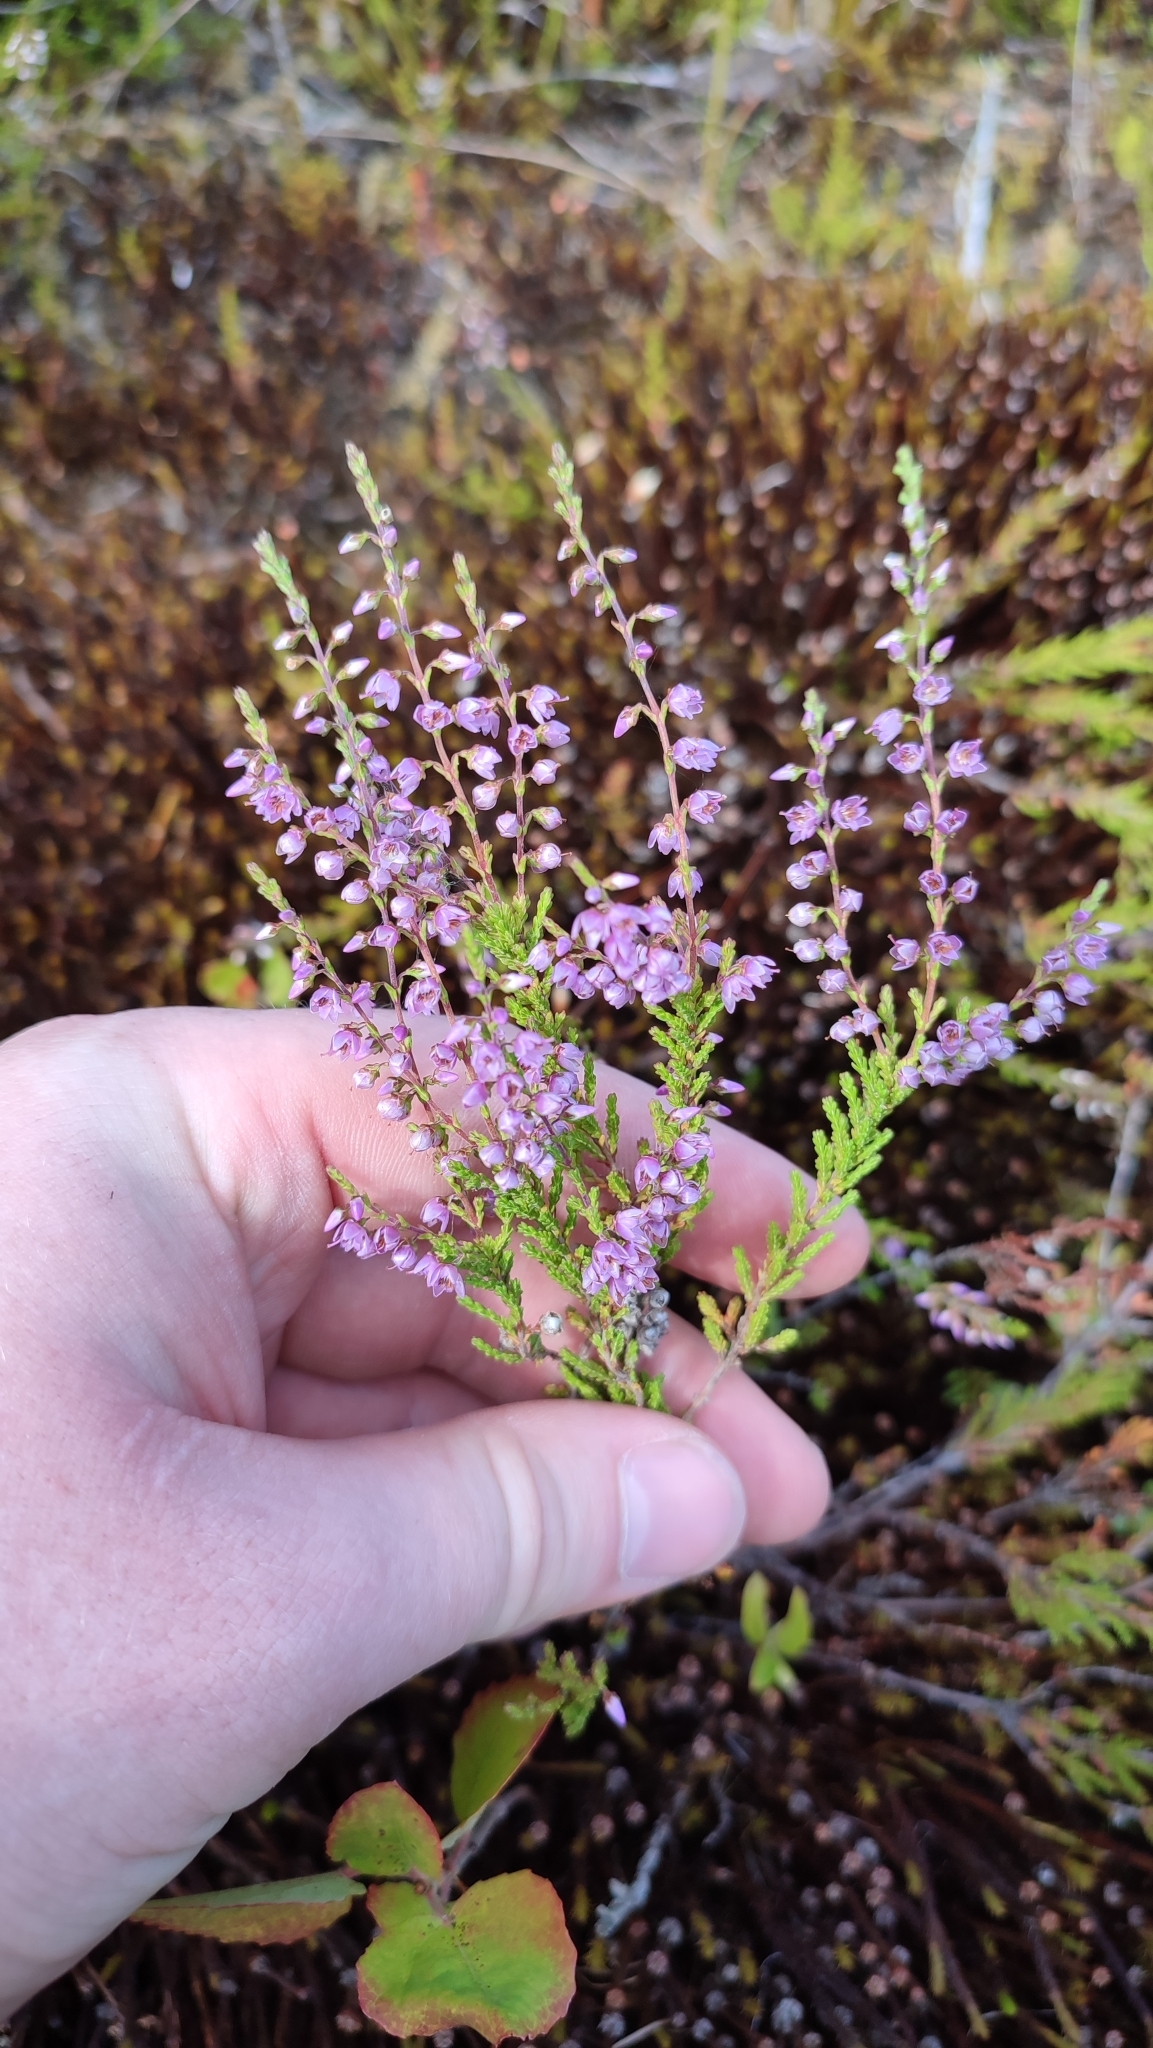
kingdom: Plantae
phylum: Tracheophyta
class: Magnoliopsida
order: Ericales
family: Ericaceae
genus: Calluna
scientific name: Calluna vulgaris
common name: Heather
